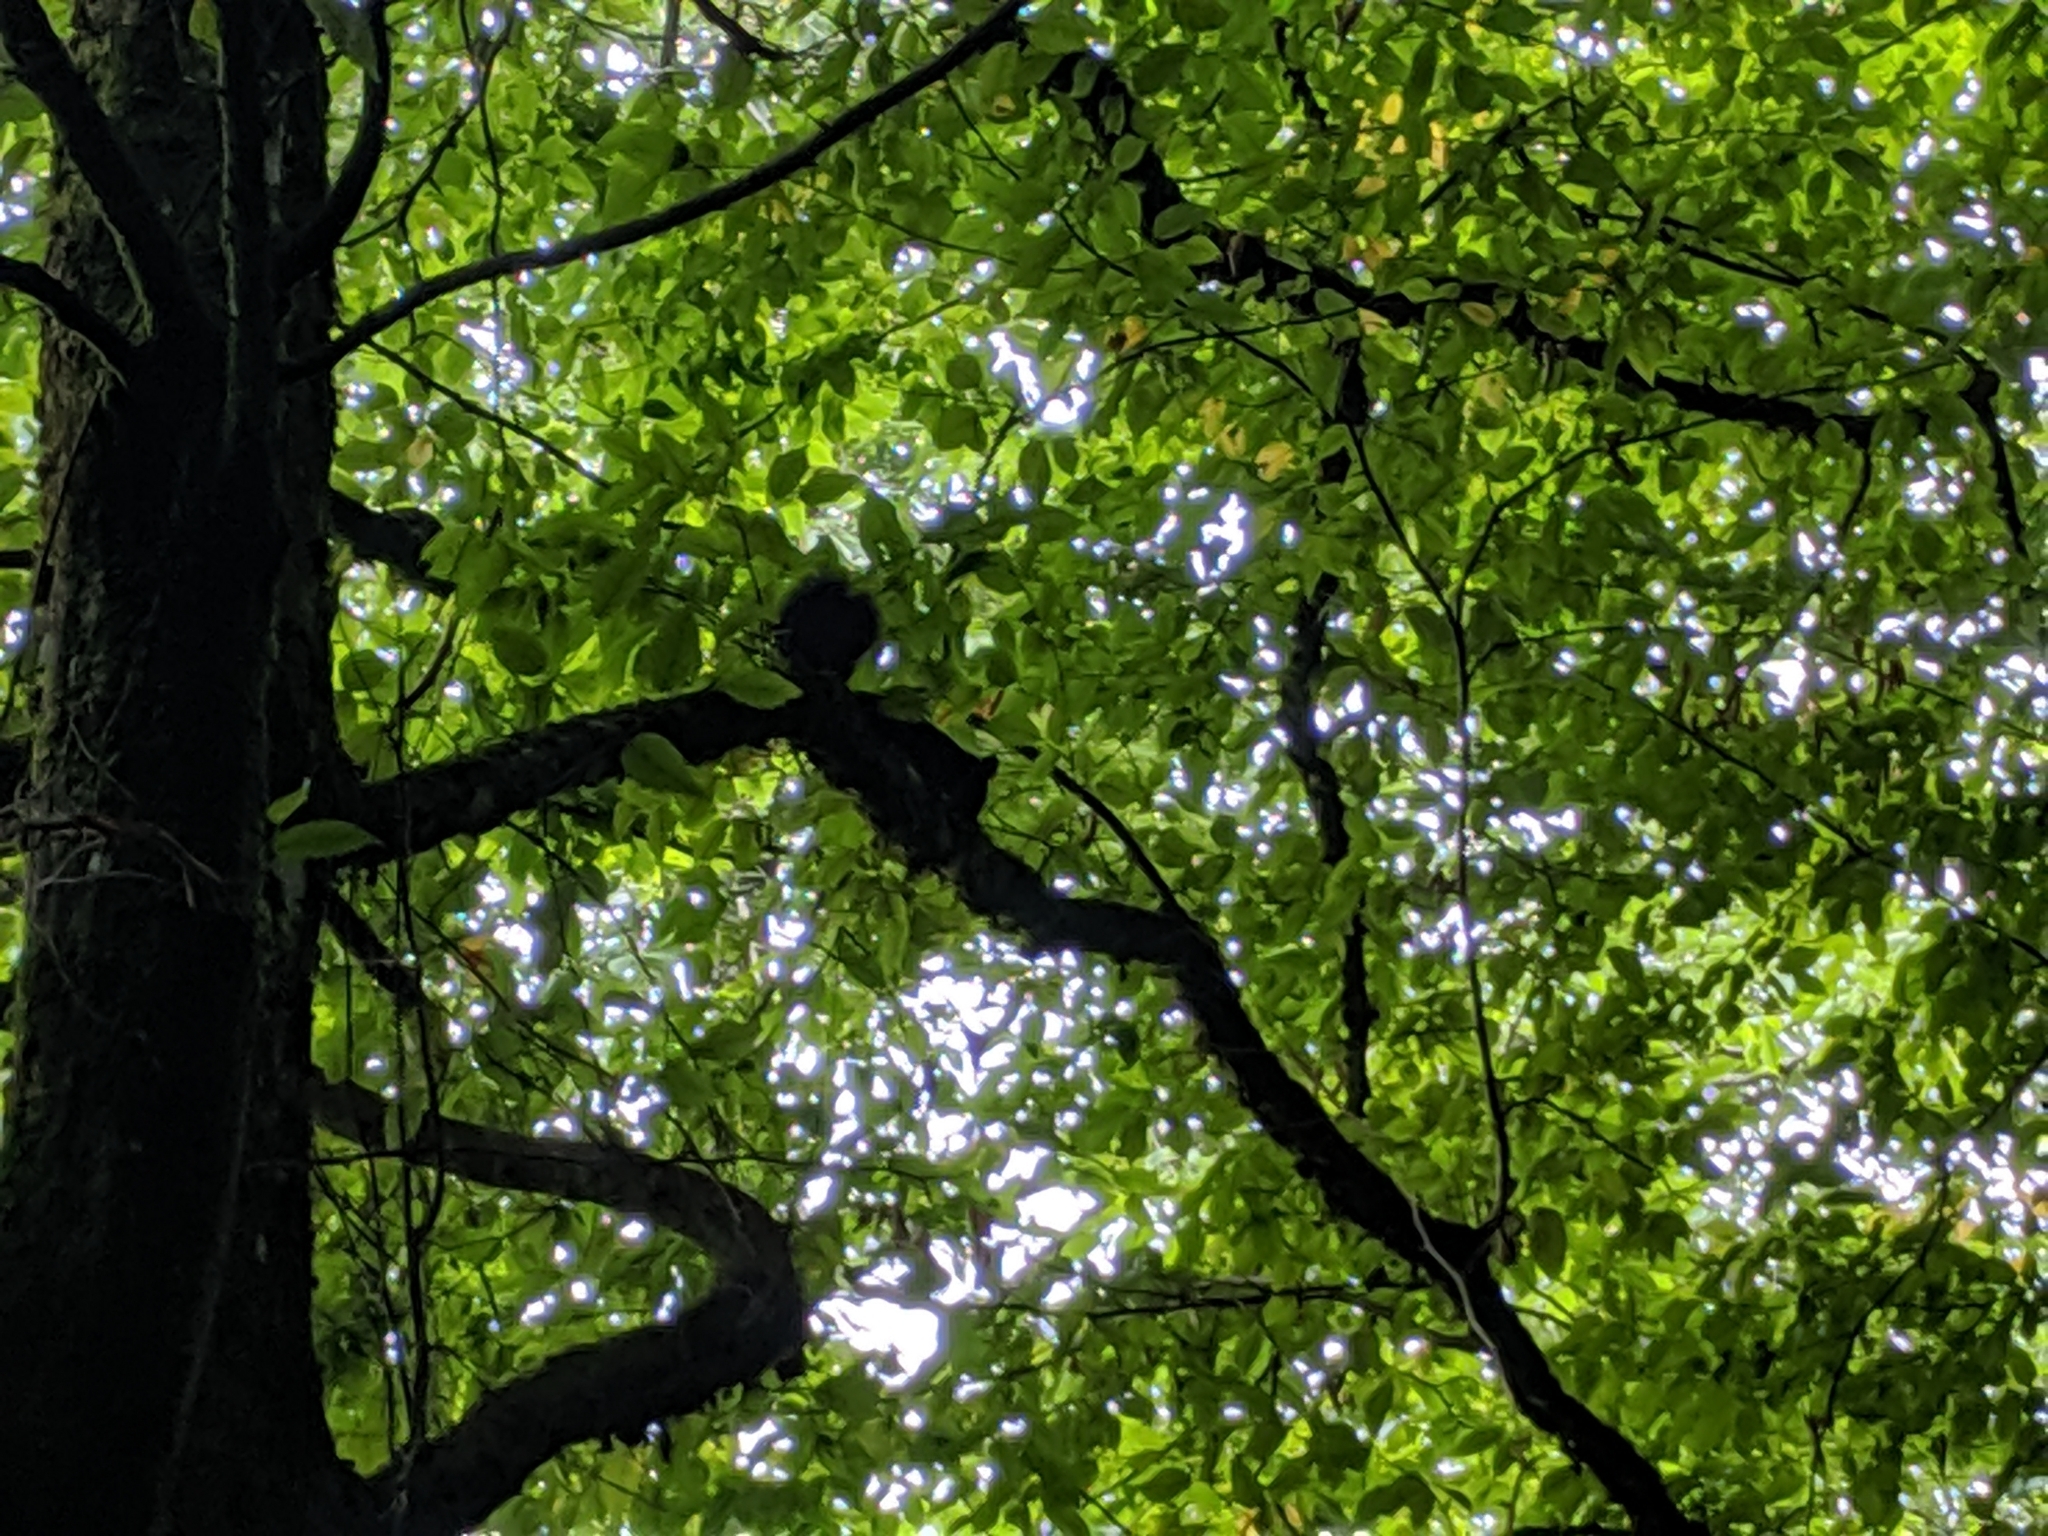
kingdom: Animalia
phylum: Chordata
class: Mammalia
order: Rodentia
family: Sciuridae
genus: Sciurus
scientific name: Sciurus vulgaris
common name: Eurasian red squirrel
